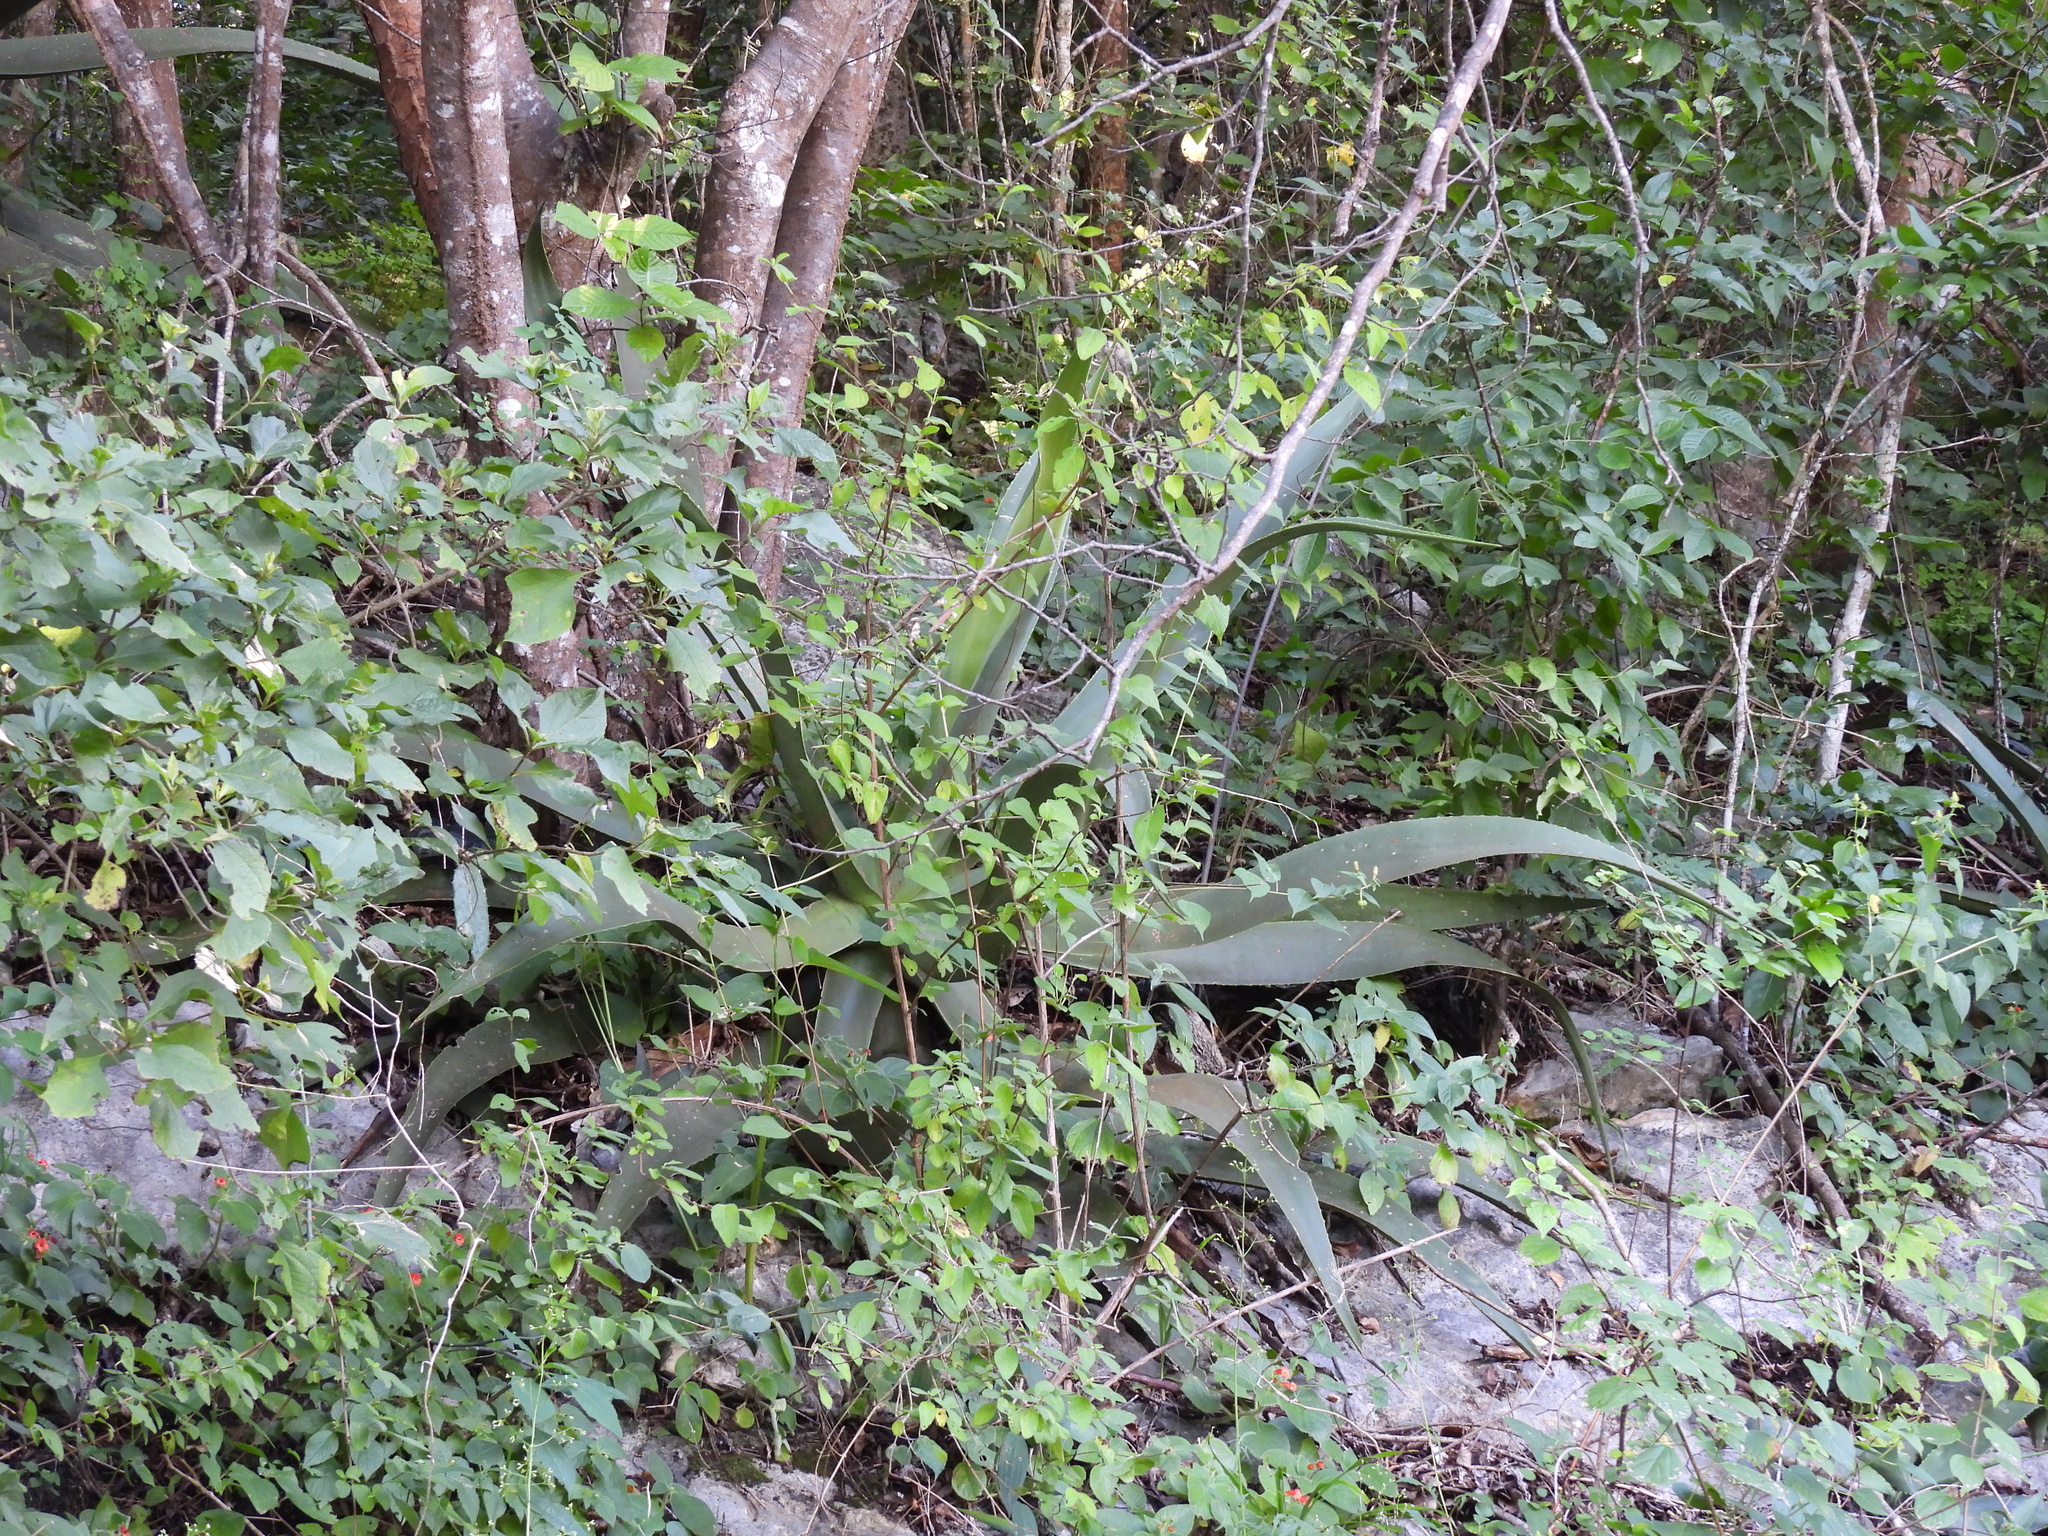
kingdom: Plantae
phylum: Tracheophyta
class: Liliopsida
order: Asparagales
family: Asparagaceae
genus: Agave
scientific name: Agave kewensis
